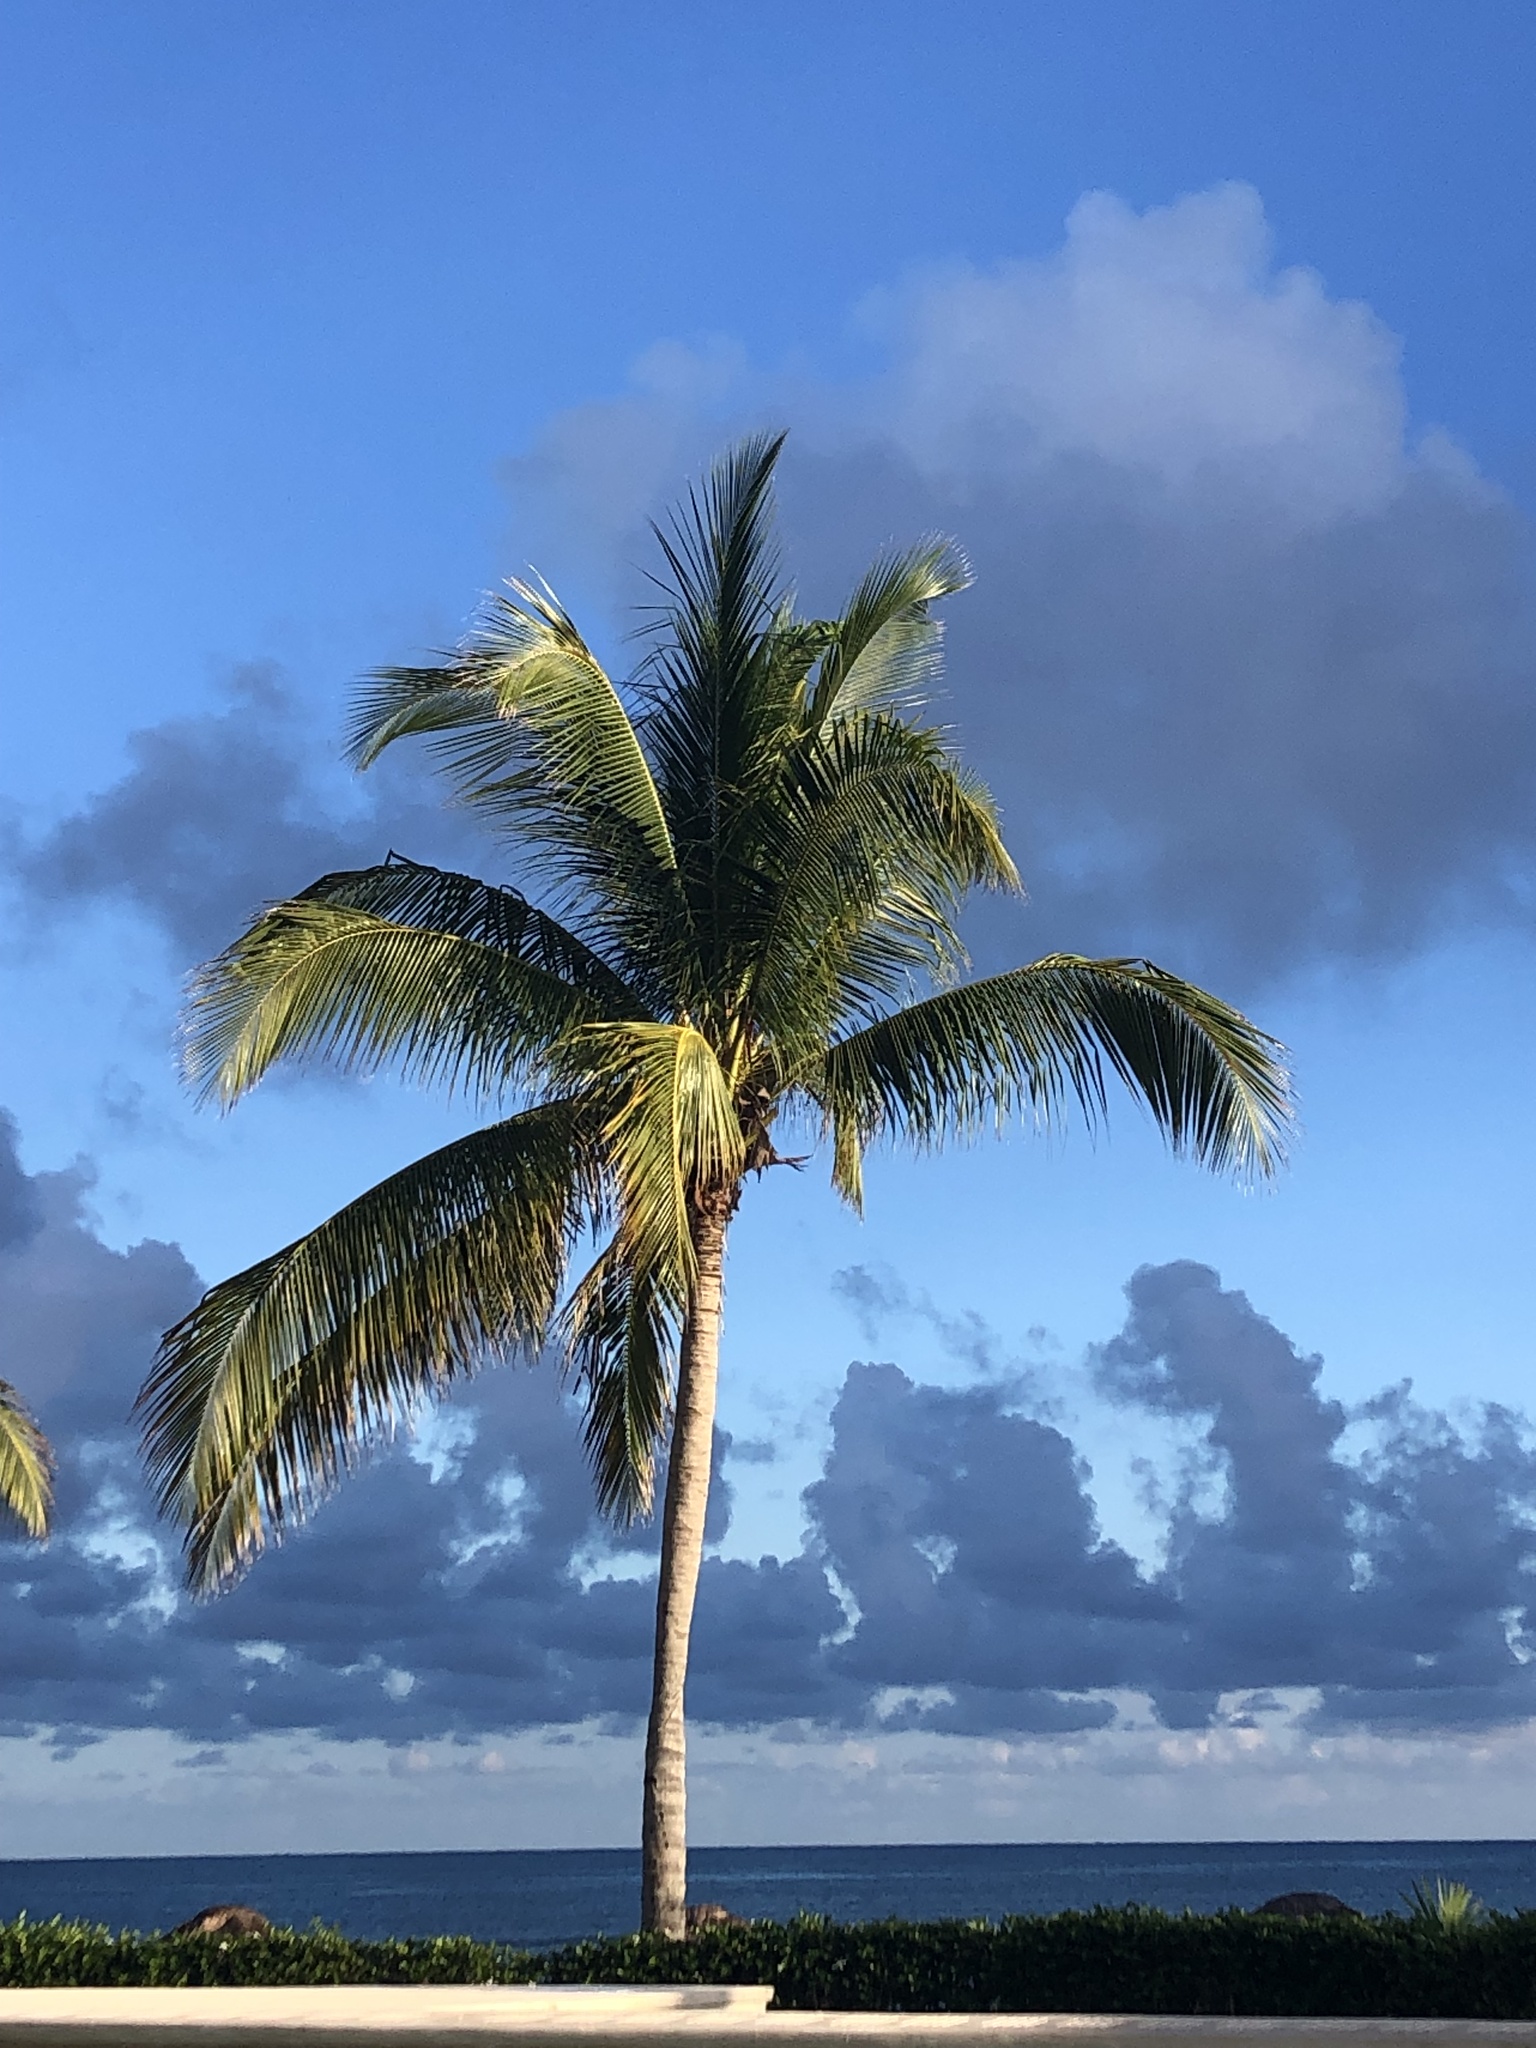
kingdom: Plantae
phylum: Tracheophyta
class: Liliopsida
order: Arecales
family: Arecaceae
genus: Cocos
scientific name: Cocos nucifera
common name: Coconut palm
